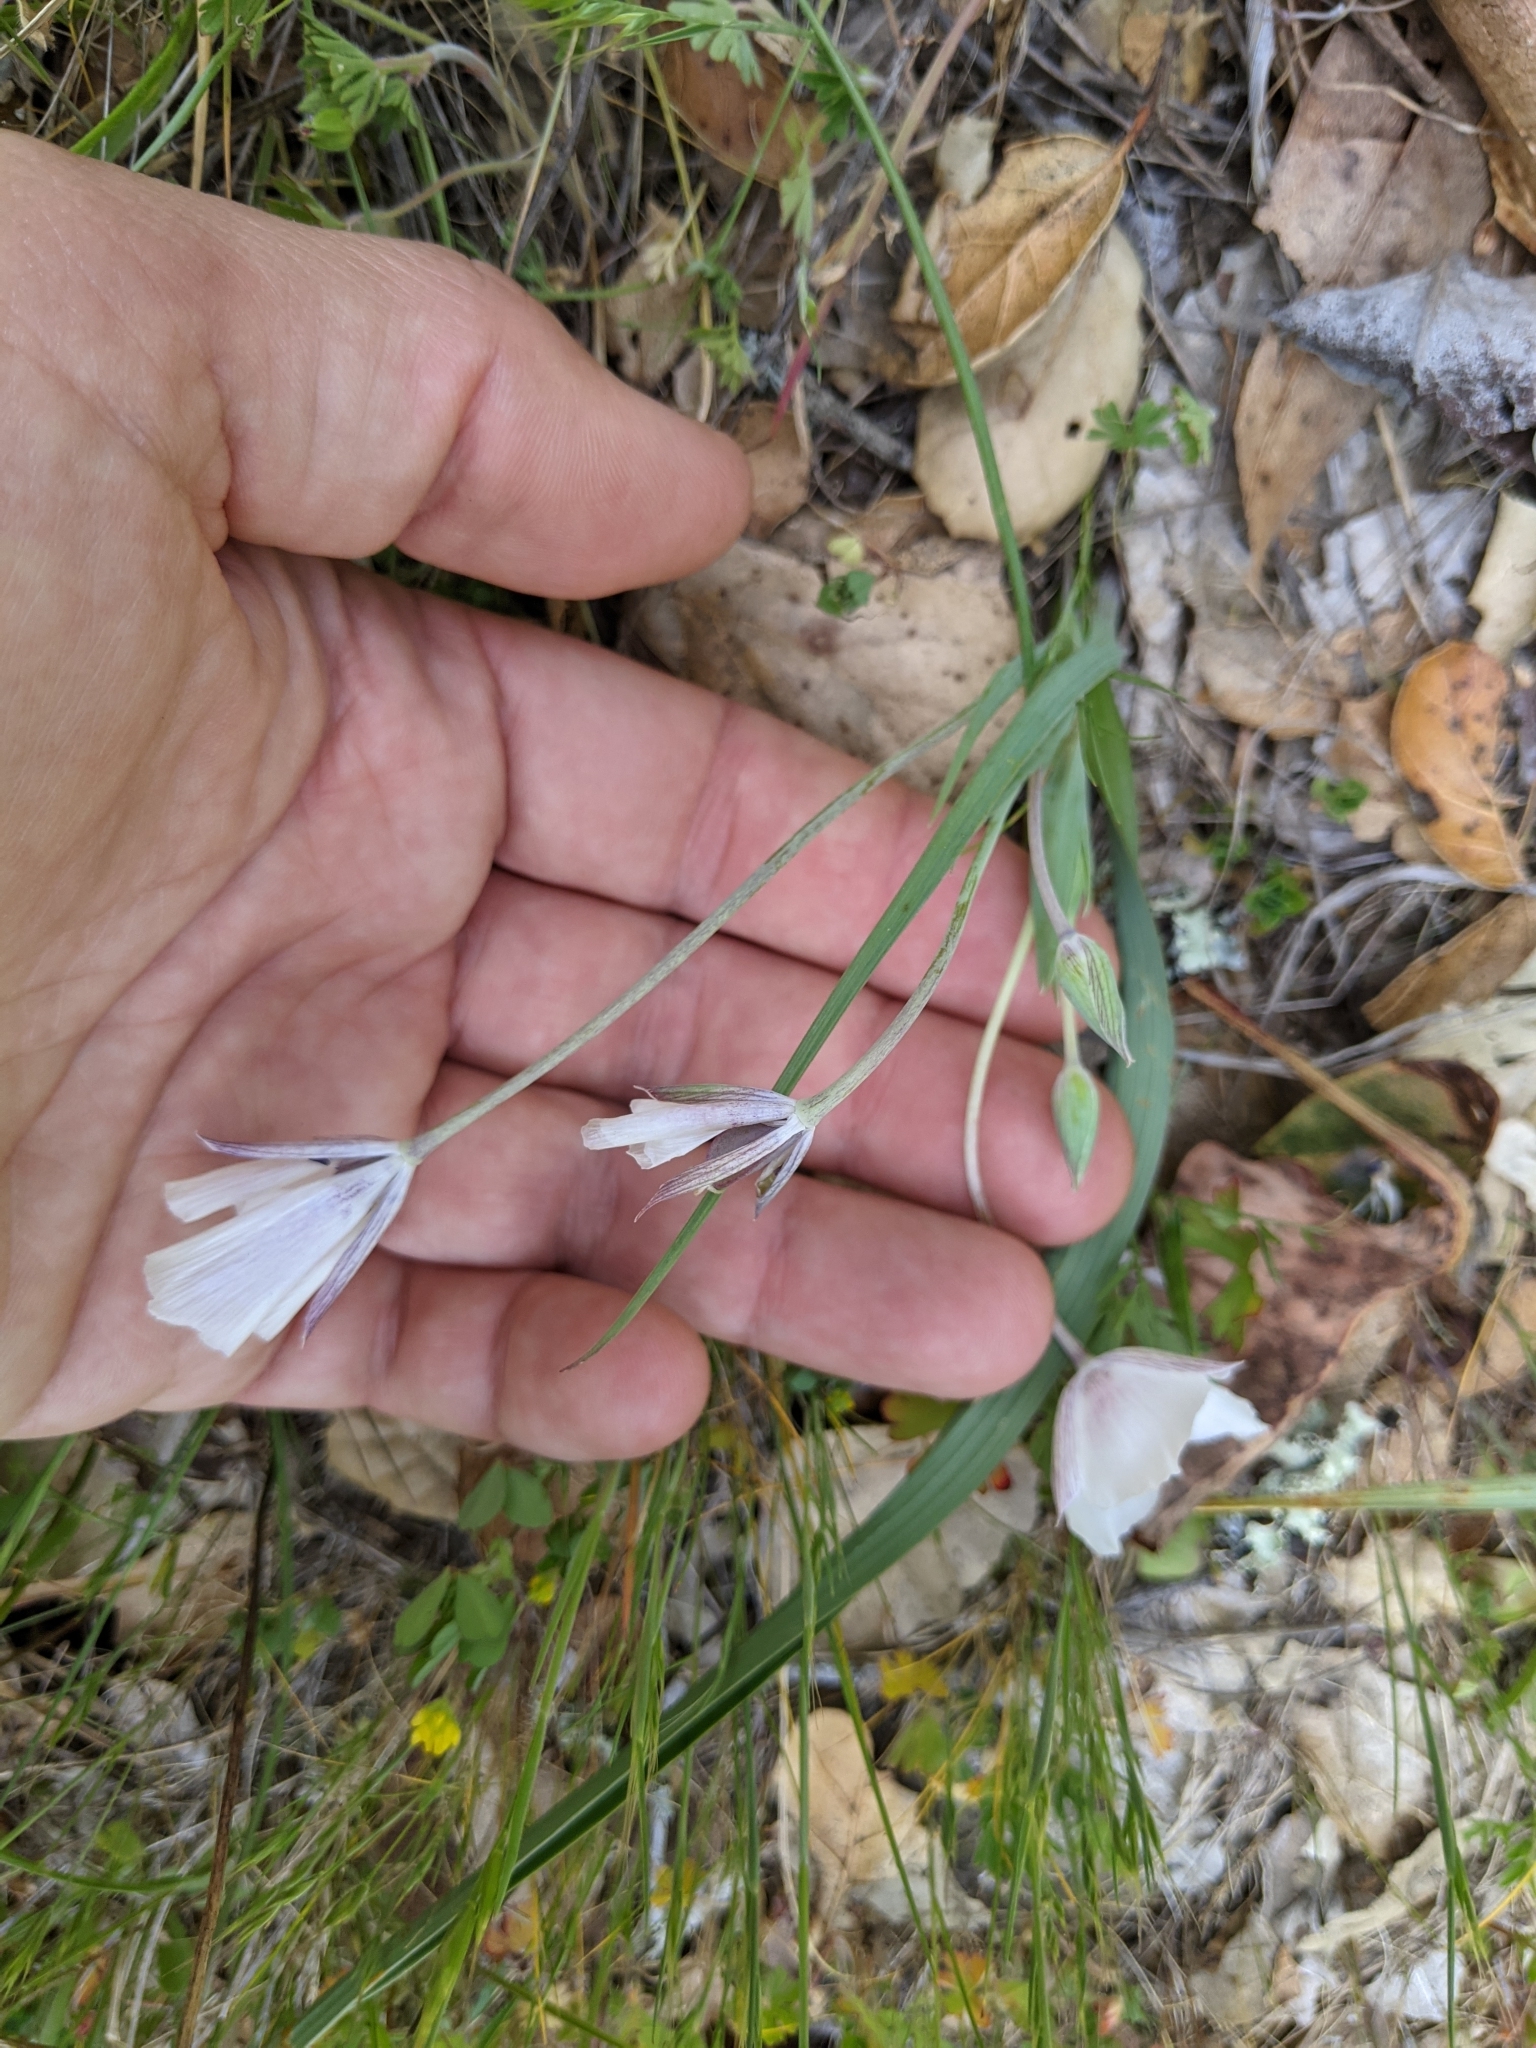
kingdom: Plantae
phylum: Tracheophyta
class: Liliopsida
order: Liliales
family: Liliaceae
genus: Calochortus
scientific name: Calochortus umbellatus
